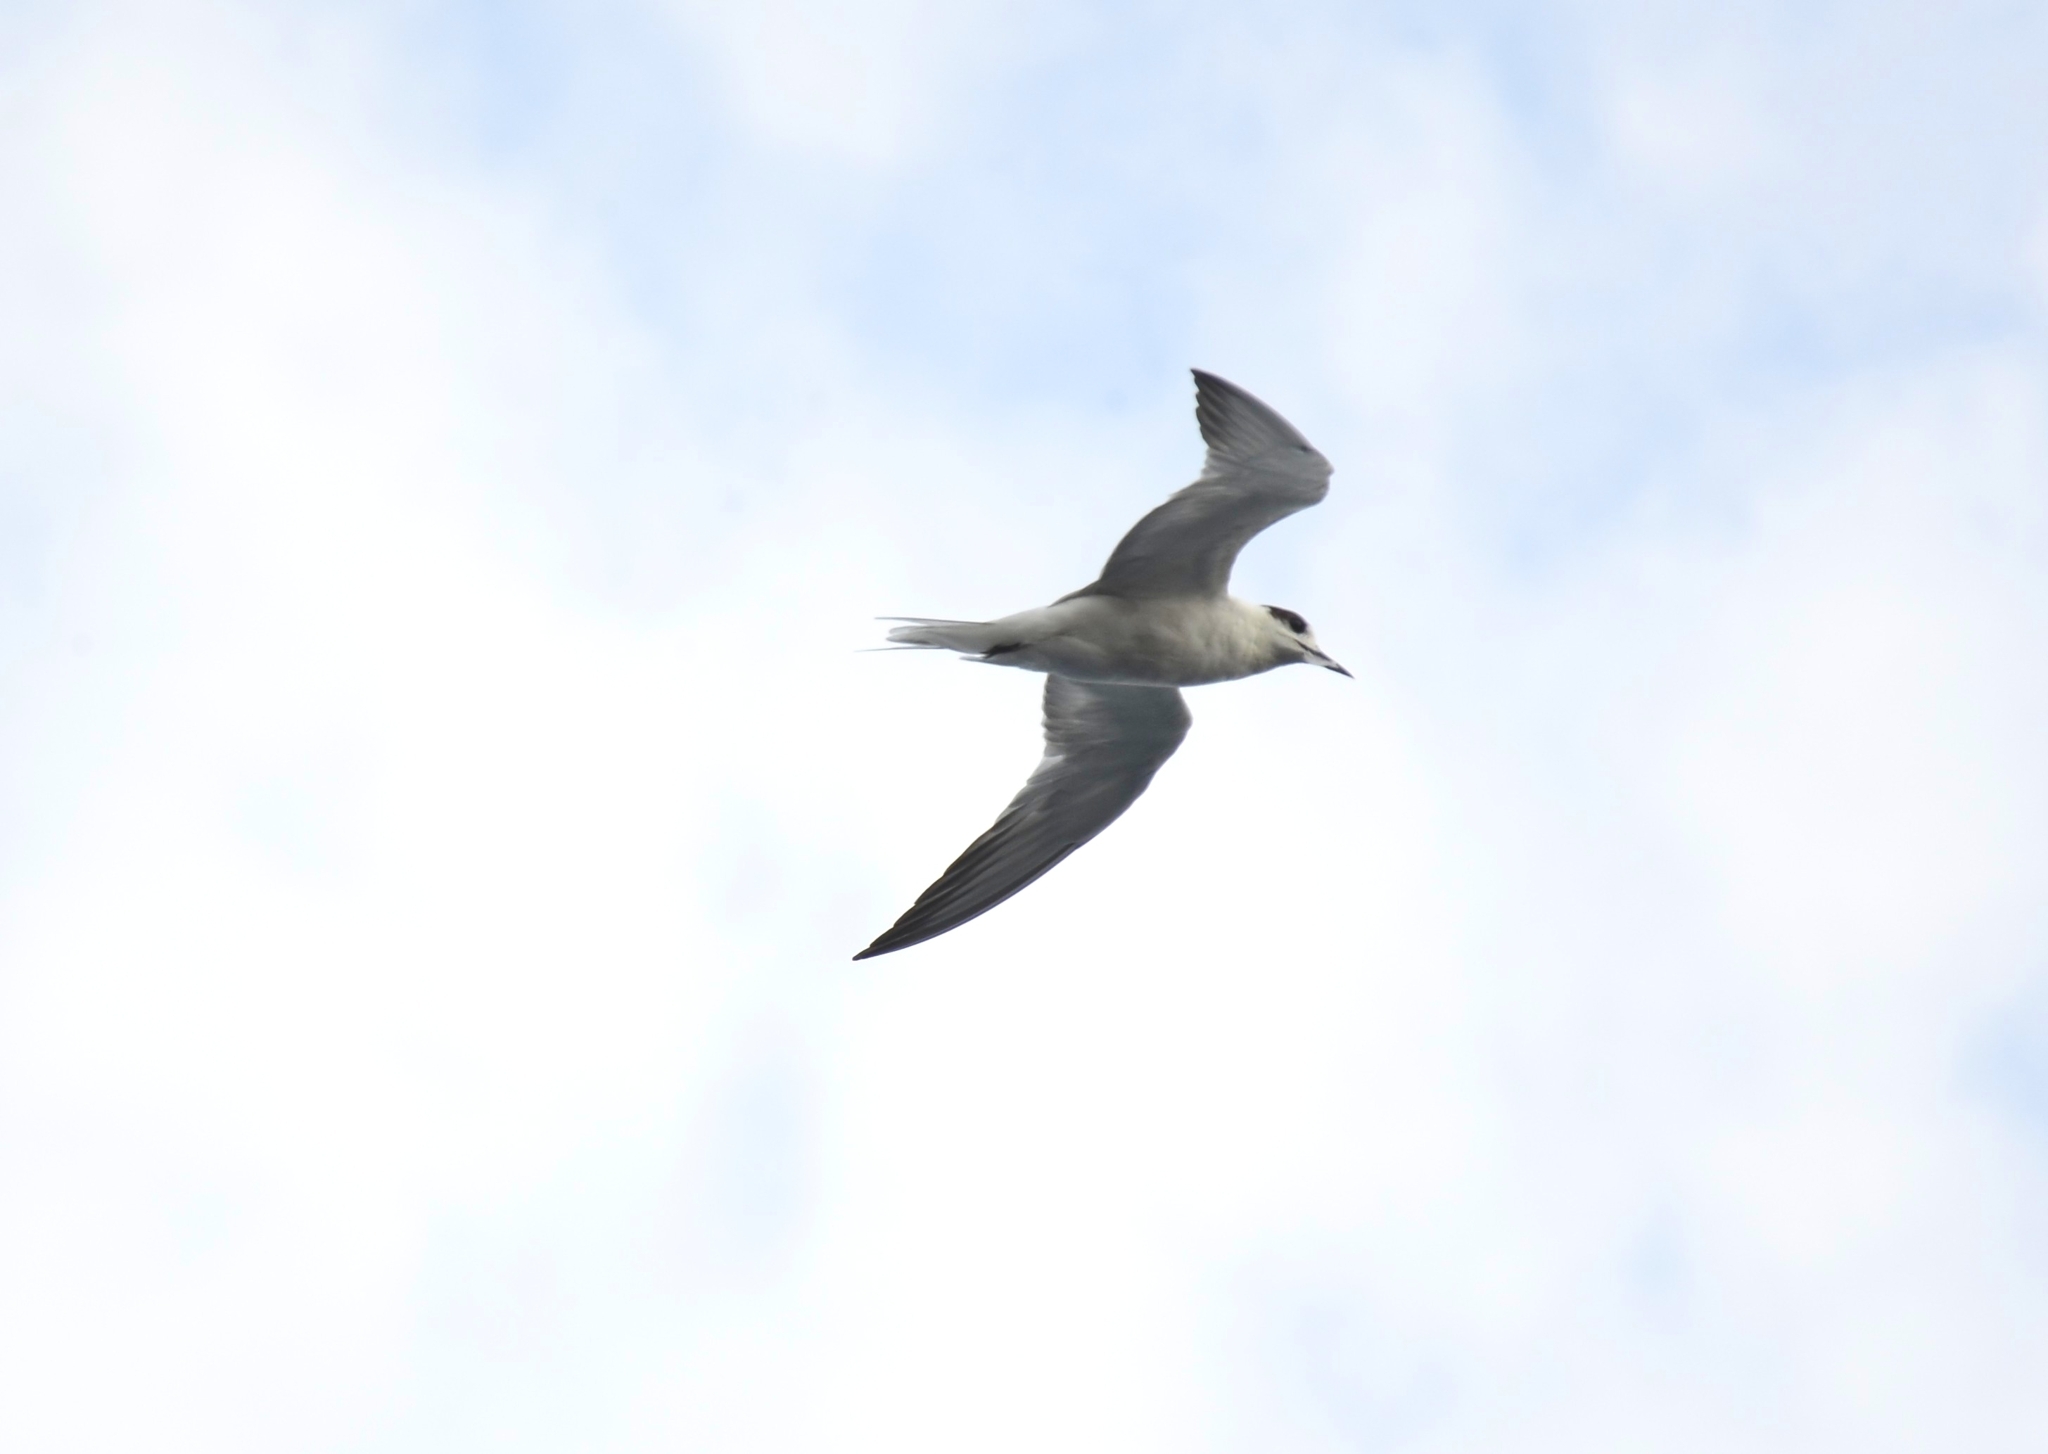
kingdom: Animalia
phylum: Chordata
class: Aves
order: Charadriiformes
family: Laridae
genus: Sterna
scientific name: Sterna hirundo
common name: Common tern
